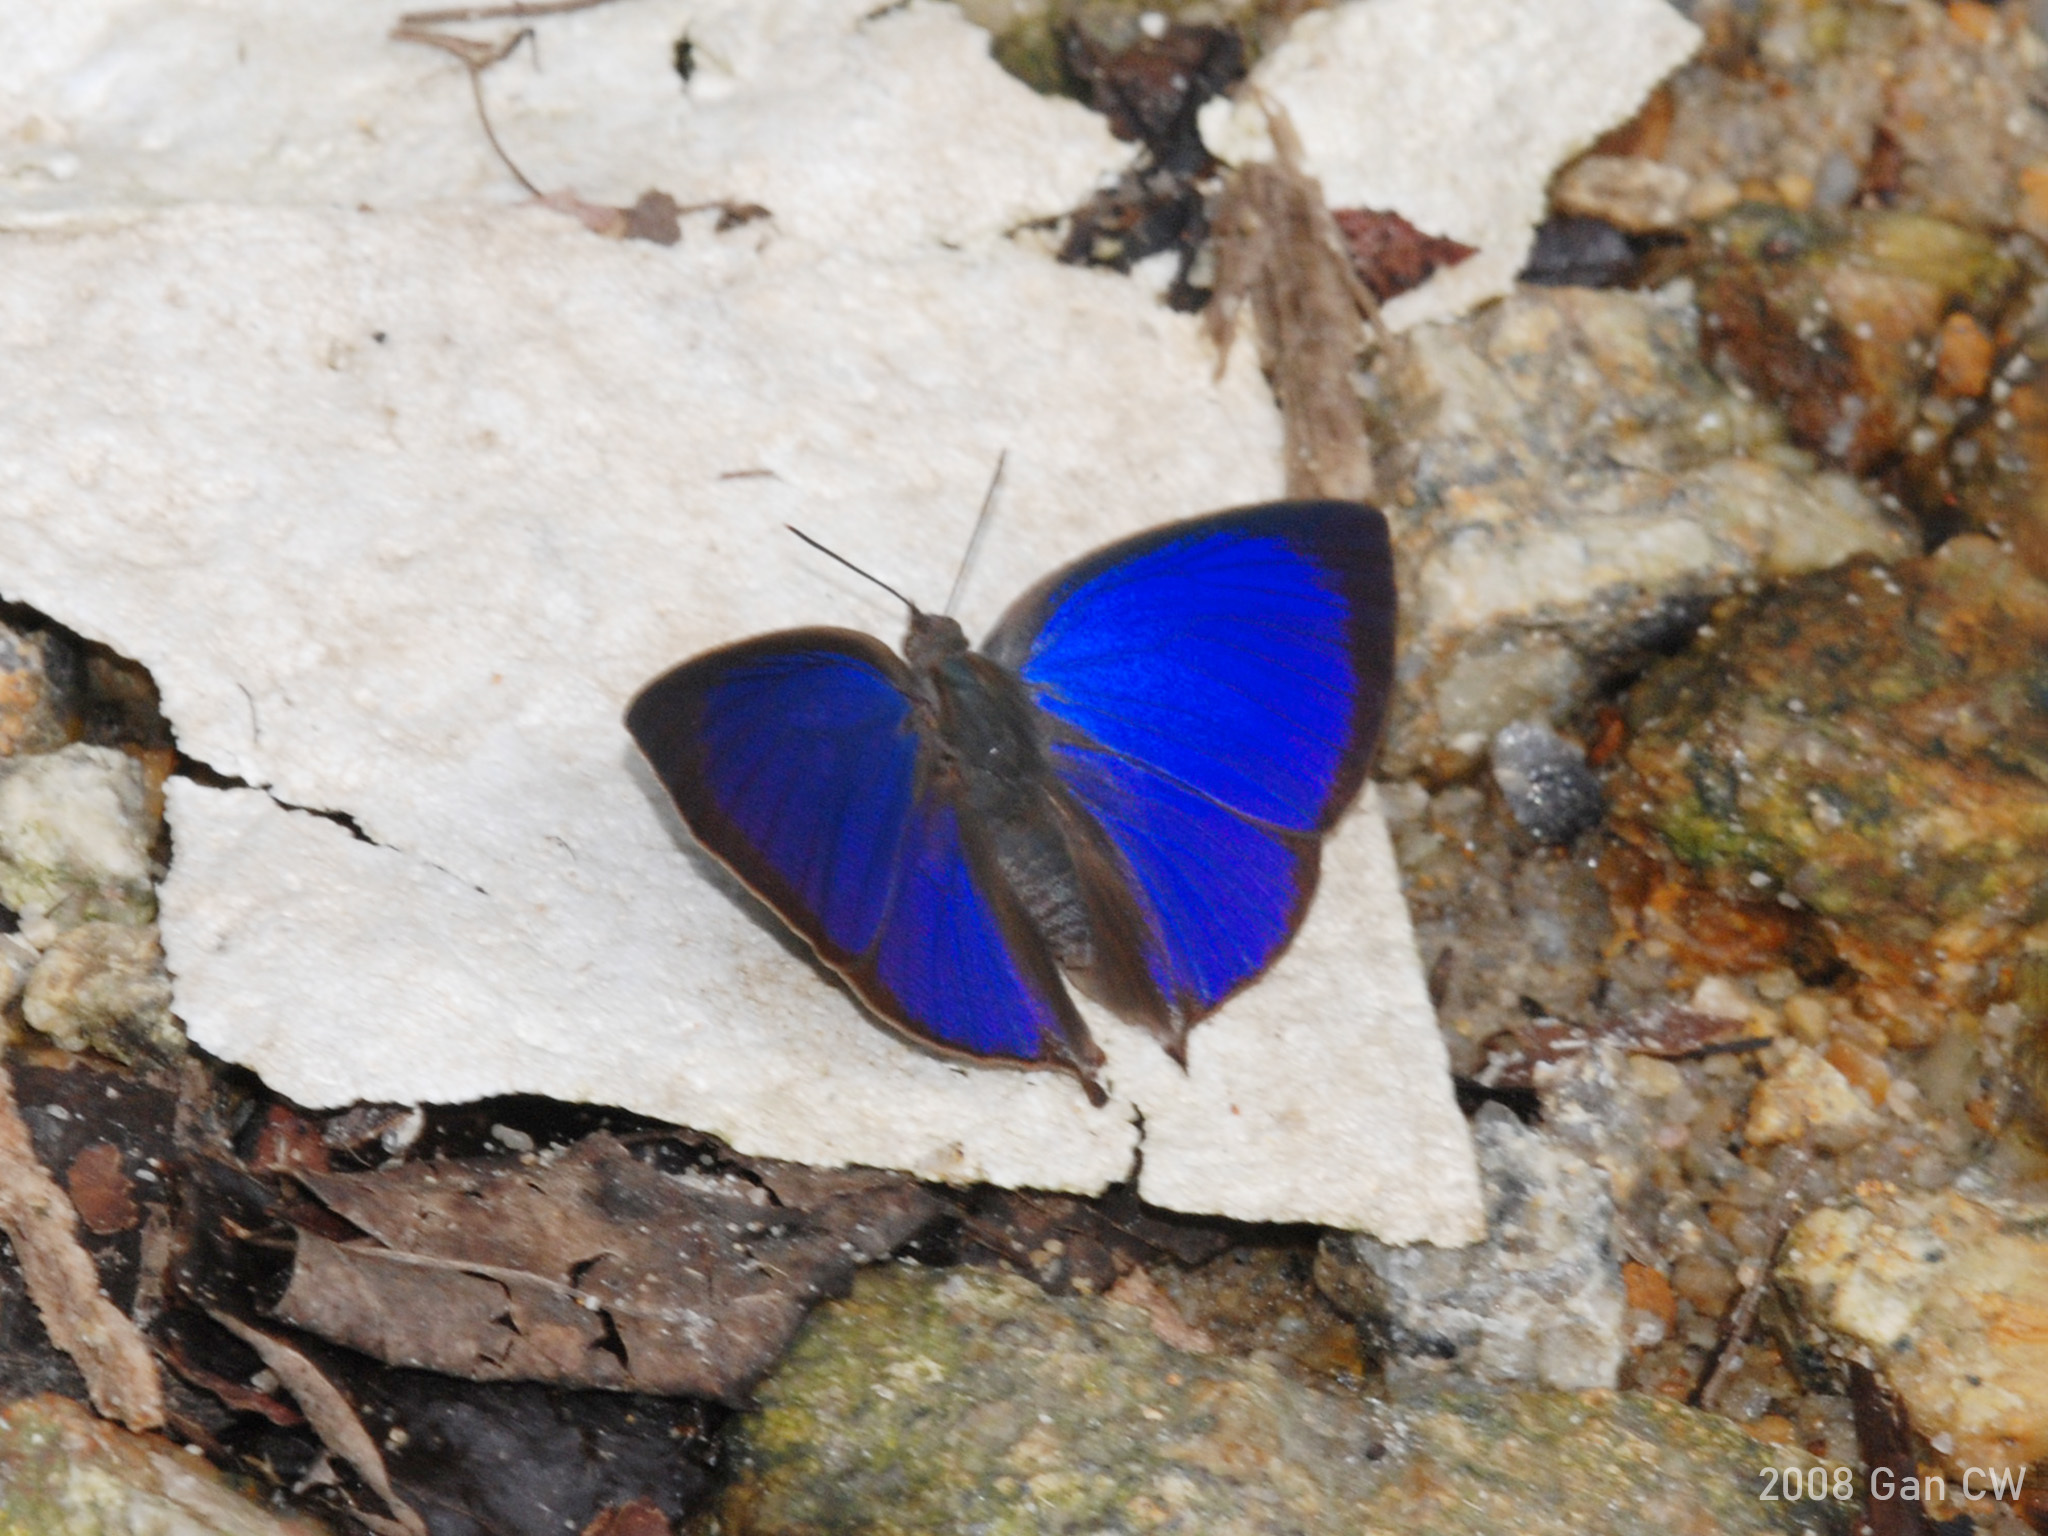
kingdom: Animalia
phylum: Arthropoda
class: Insecta
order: Lepidoptera
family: Lycaenidae
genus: Amblypodia
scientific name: Amblypodia narada
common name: Blue leaf blue
